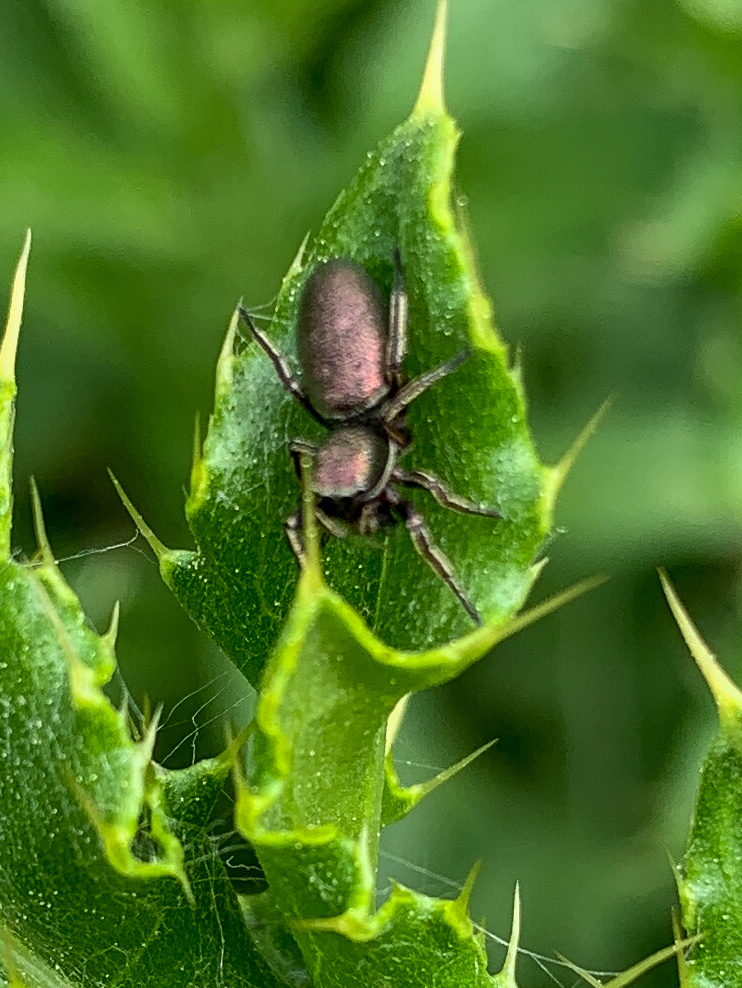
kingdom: Animalia
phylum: Arthropoda
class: Arachnida
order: Araneae
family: Salticidae
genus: Tutelina
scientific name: Tutelina similis
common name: Thick-spined jumping spider
